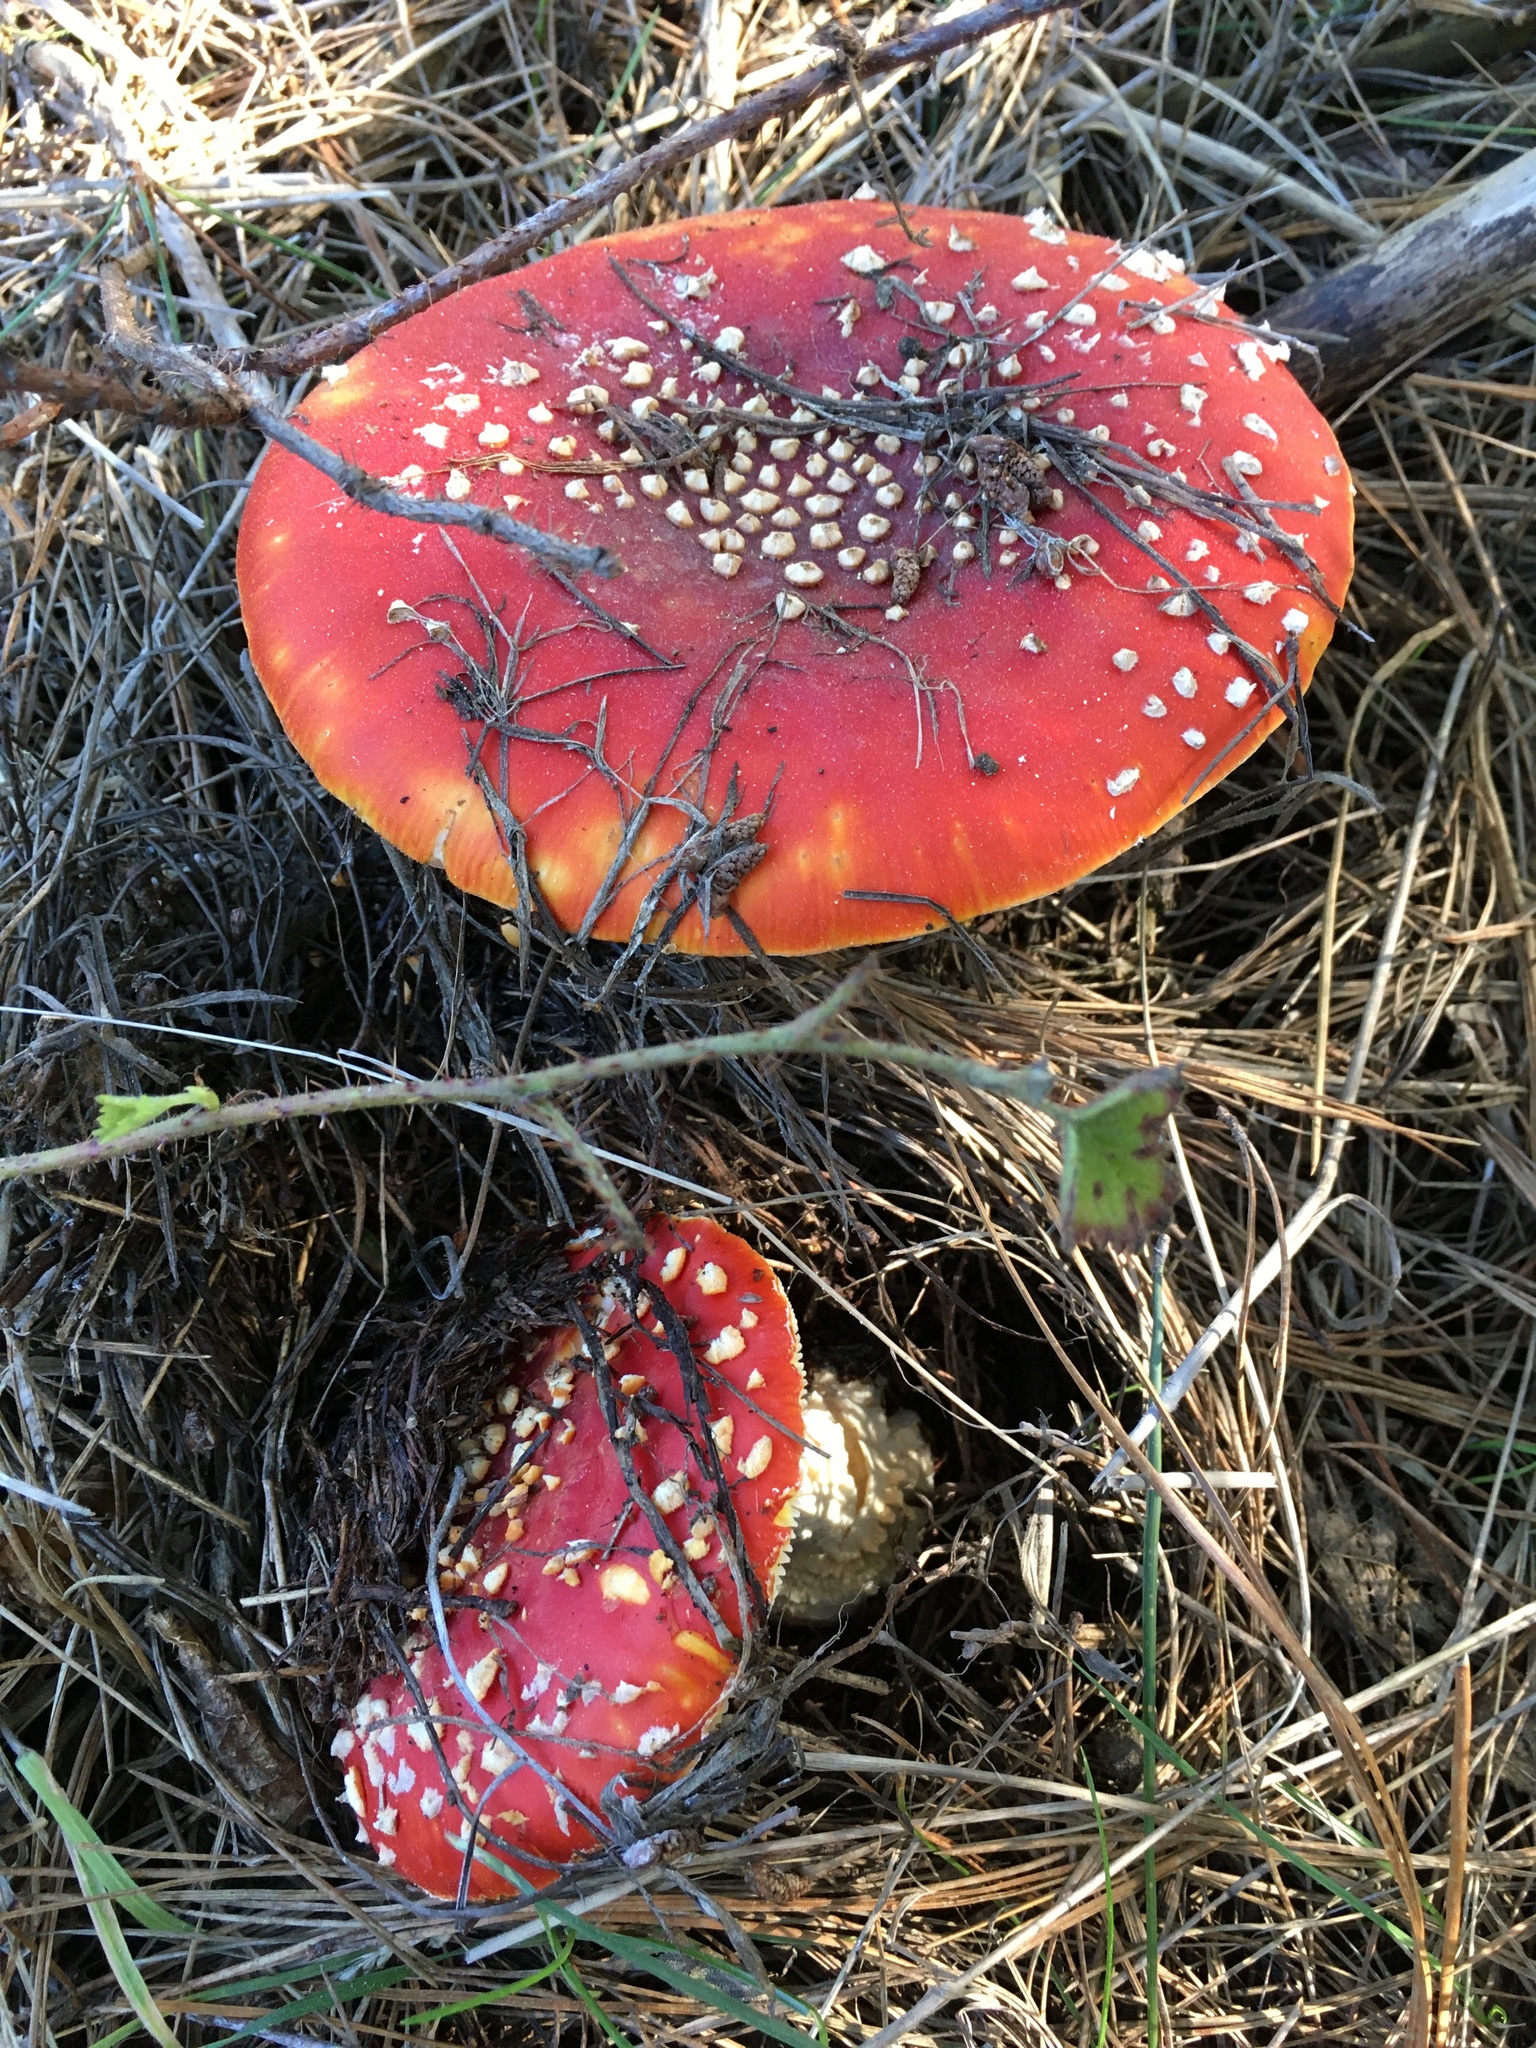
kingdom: Fungi
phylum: Basidiomycota
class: Agaricomycetes
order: Agaricales
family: Amanitaceae
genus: Amanita
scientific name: Amanita muscaria
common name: Fly agaric
